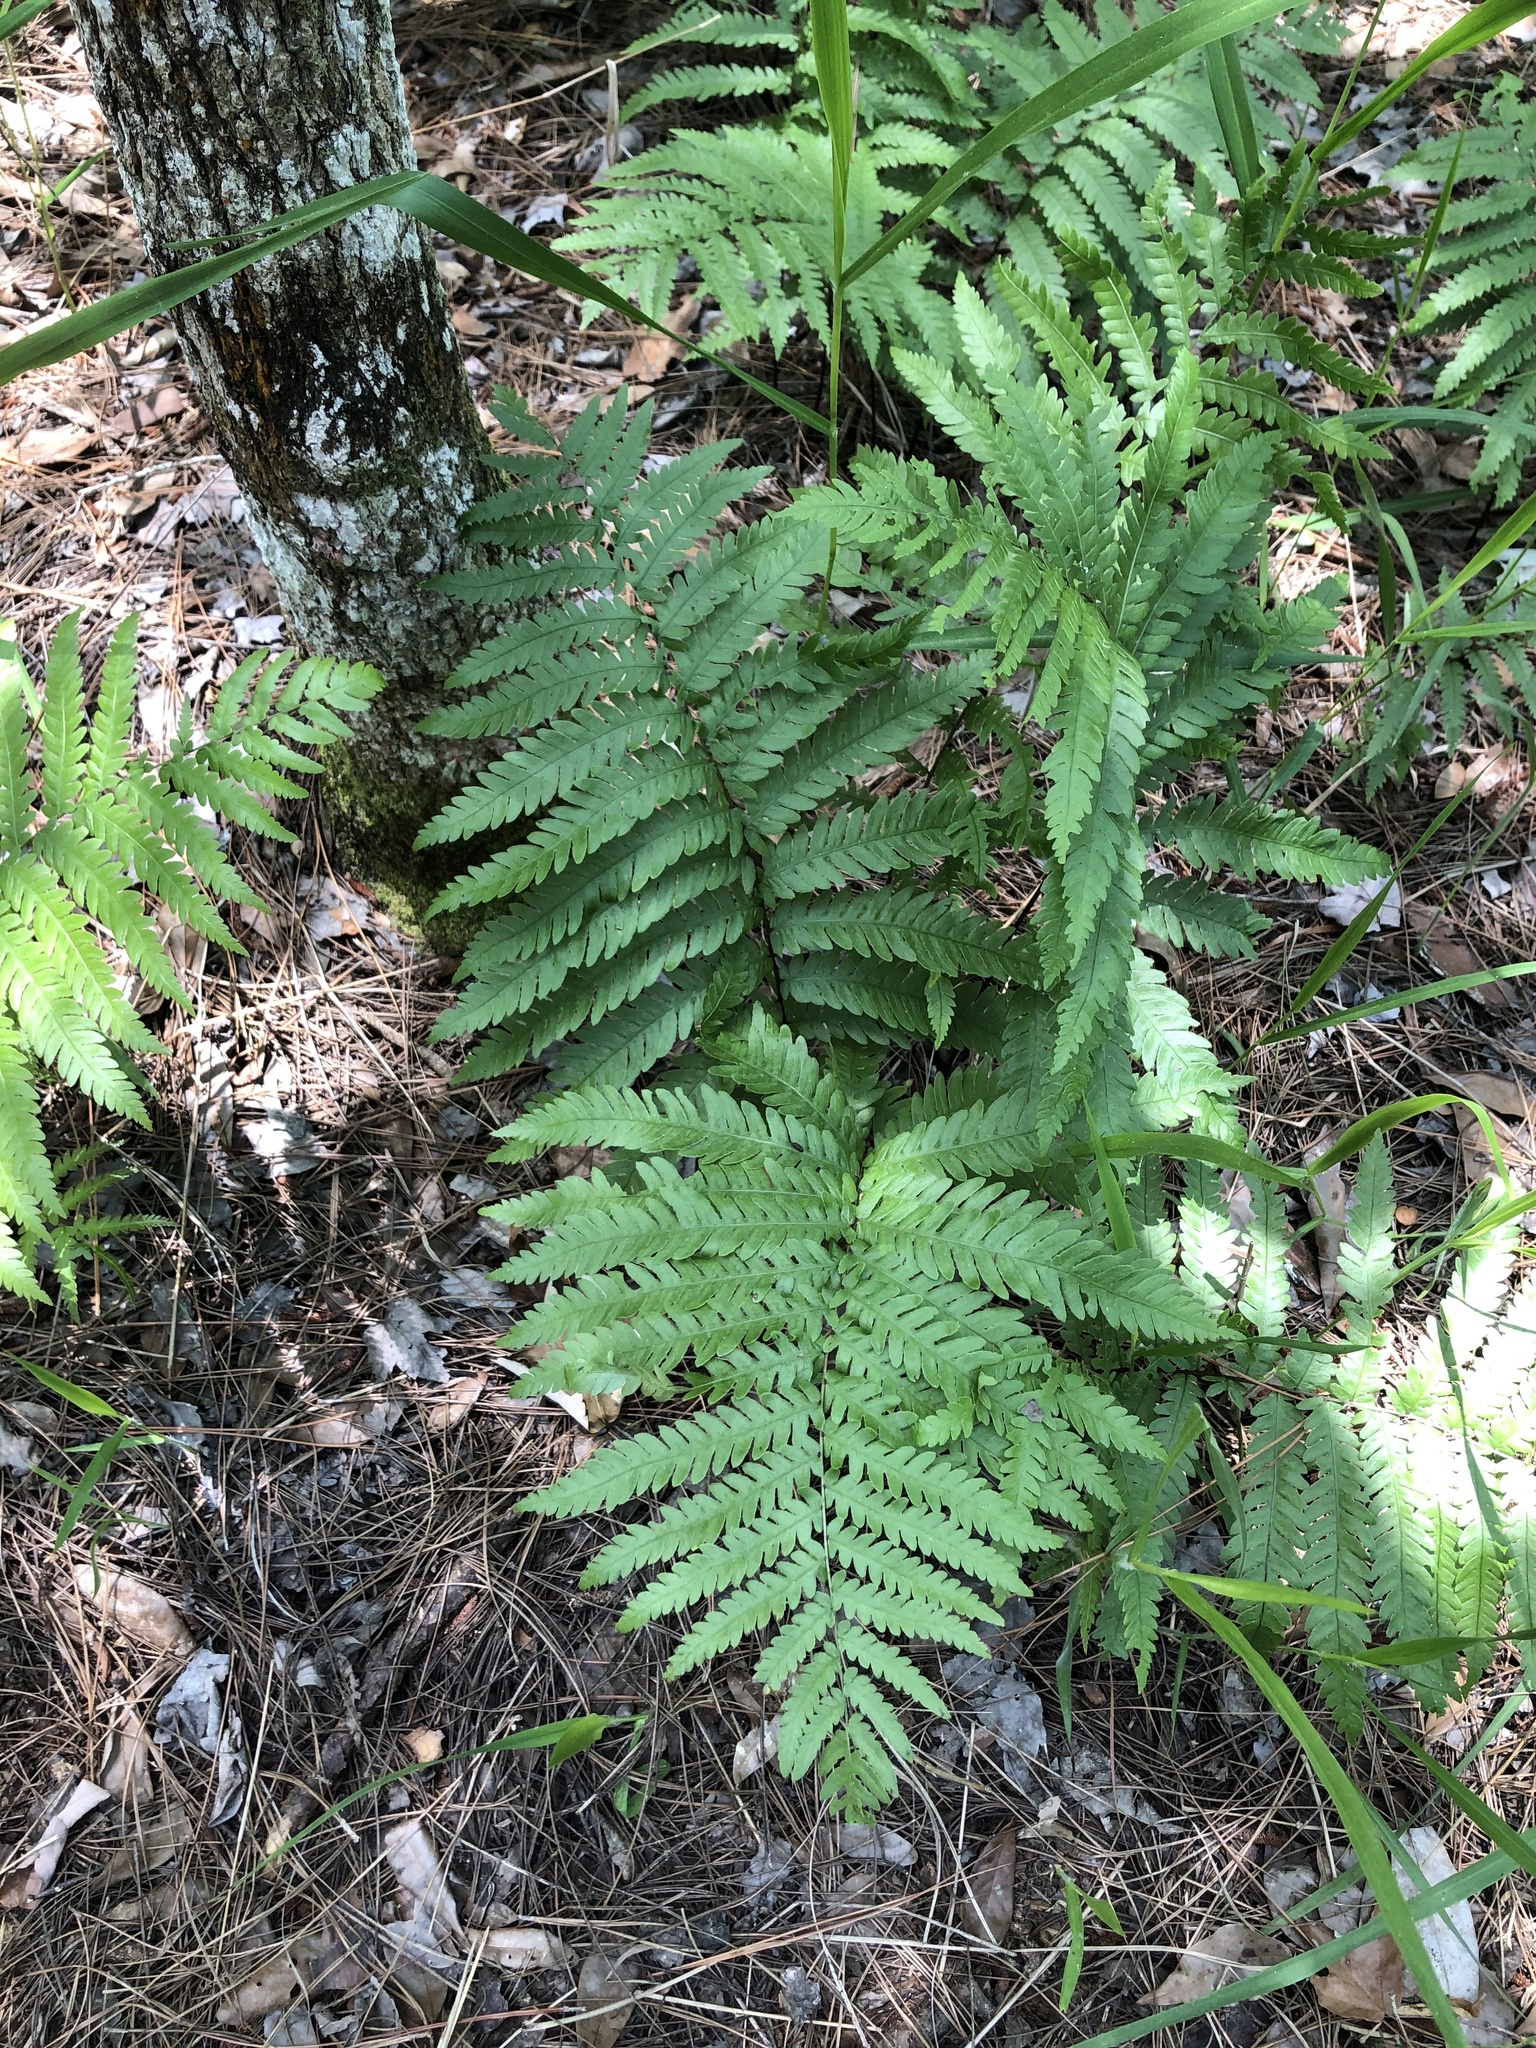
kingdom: Plantae
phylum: Tracheophyta
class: Polypodiopsida
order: Polypodiales
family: Blechnaceae
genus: Anchistea
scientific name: Anchistea virginica
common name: Virginia chain fern
